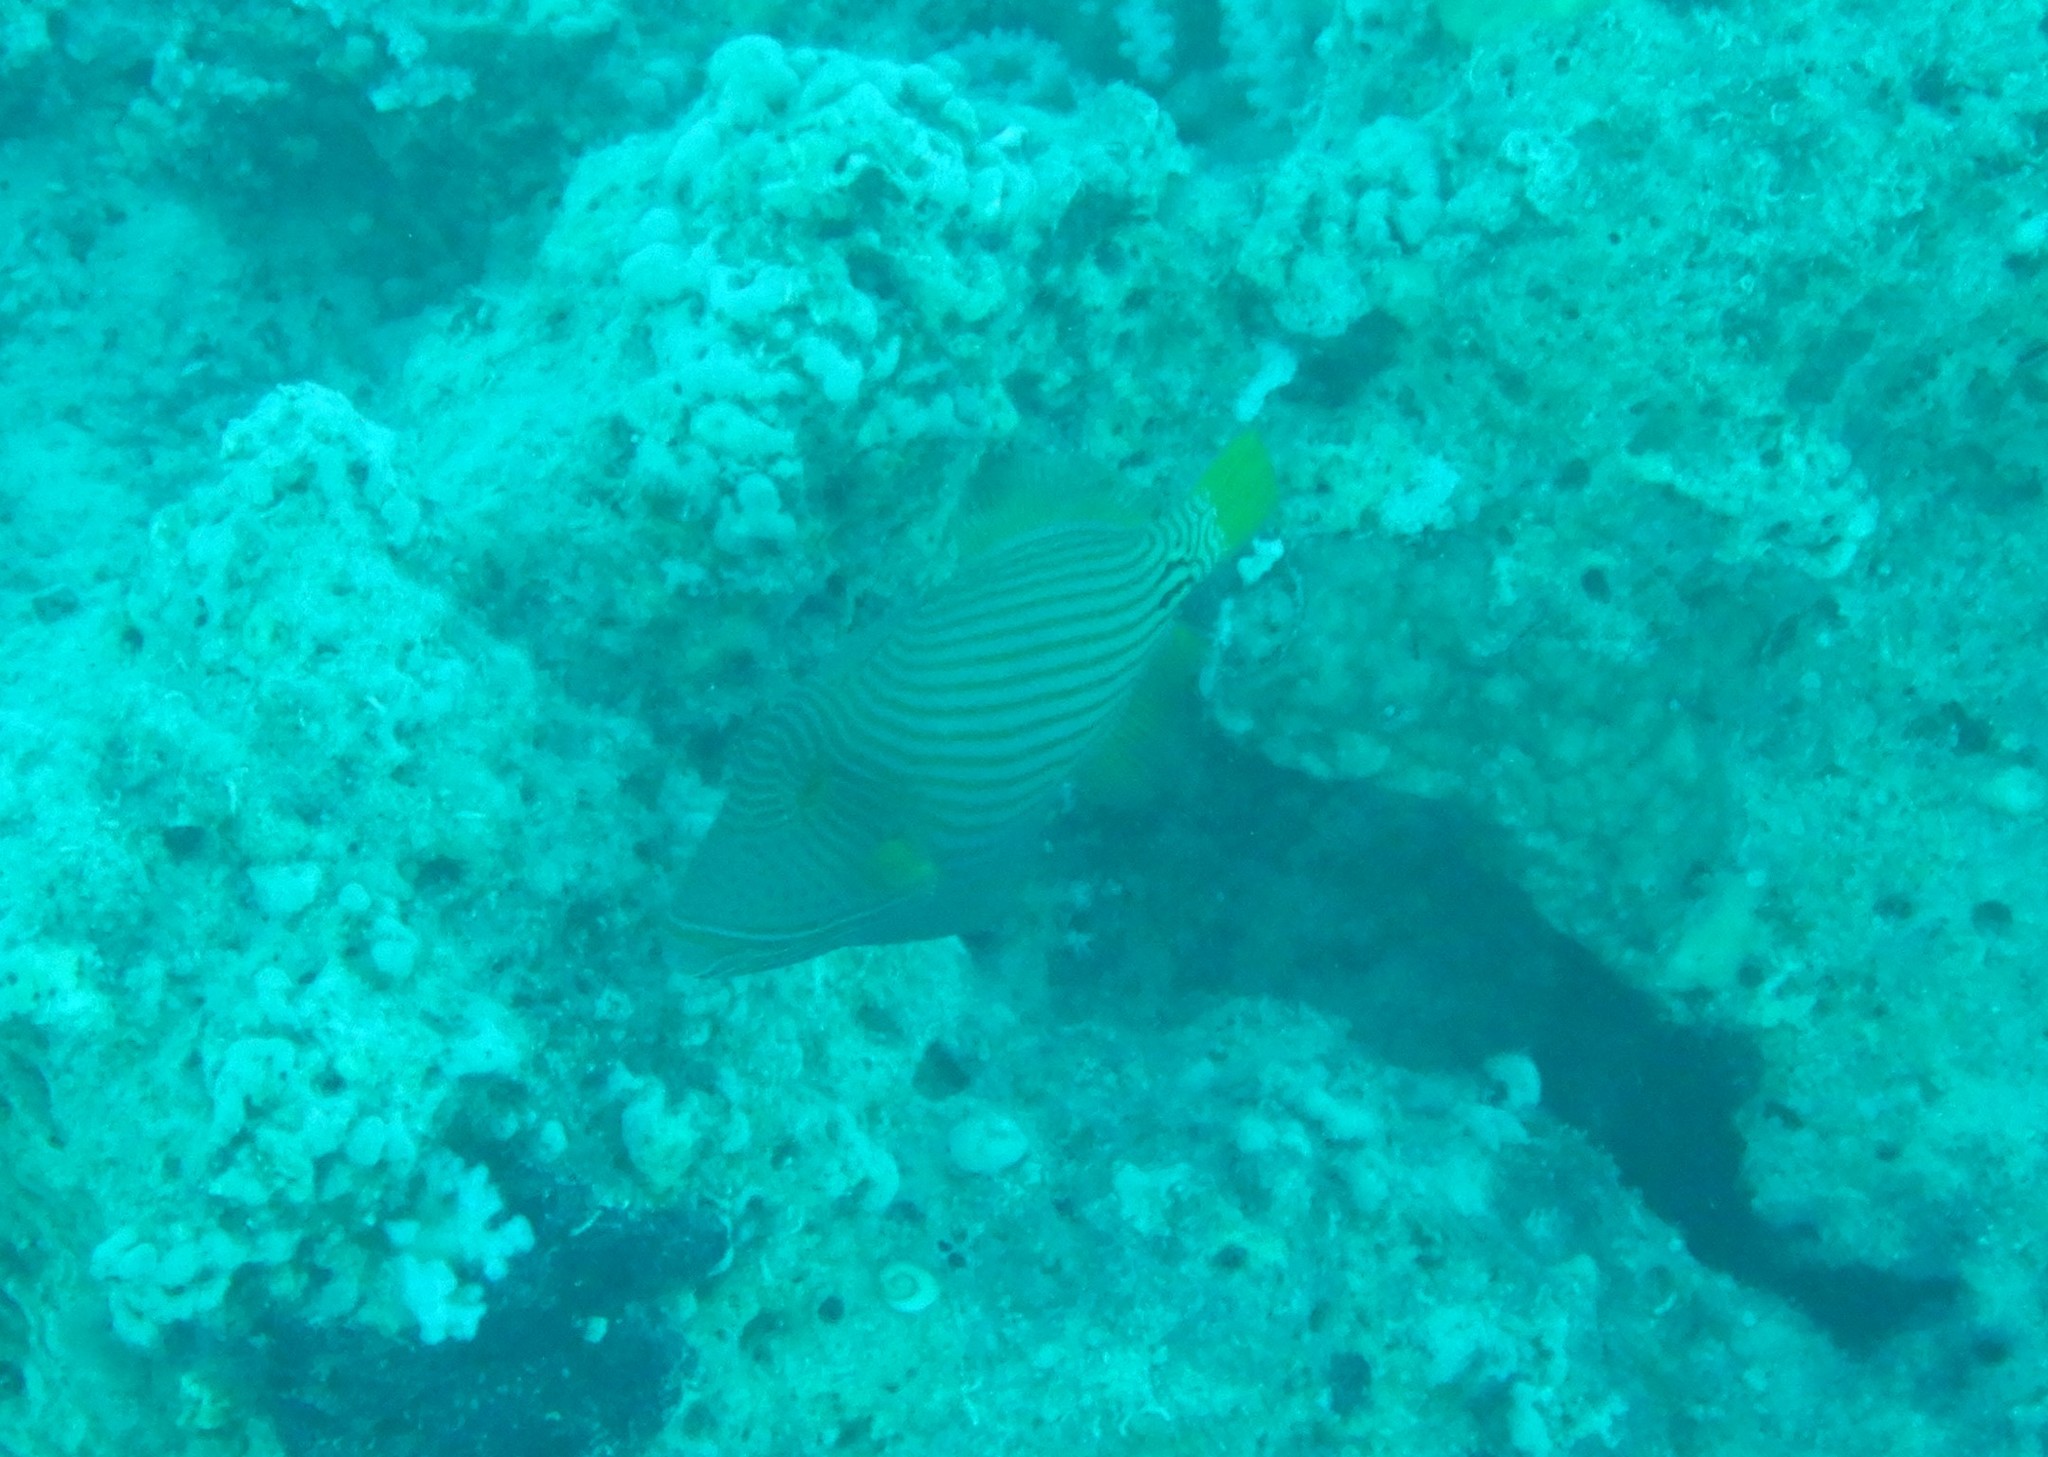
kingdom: Animalia
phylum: Chordata
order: Tetraodontiformes
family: Balistidae
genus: Balistapus
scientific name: Balistapus undulatus
